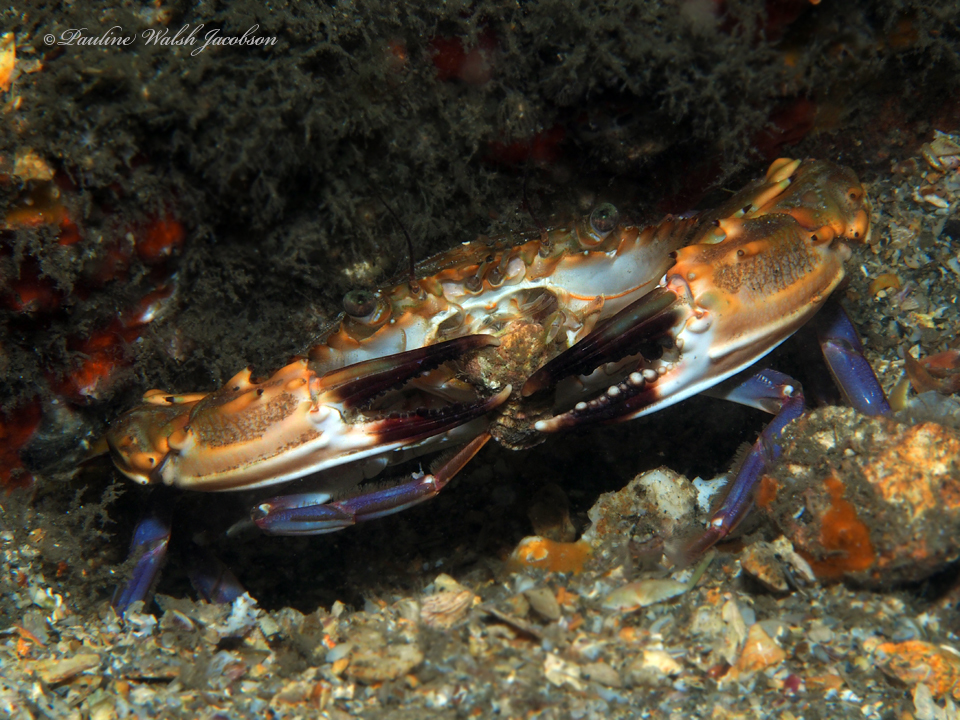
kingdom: Animalia
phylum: Arthropoda
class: Malacostraca
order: Decapoda
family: Portunidae
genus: Charybdis
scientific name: Charybdis hellerii
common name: Spiny hands
